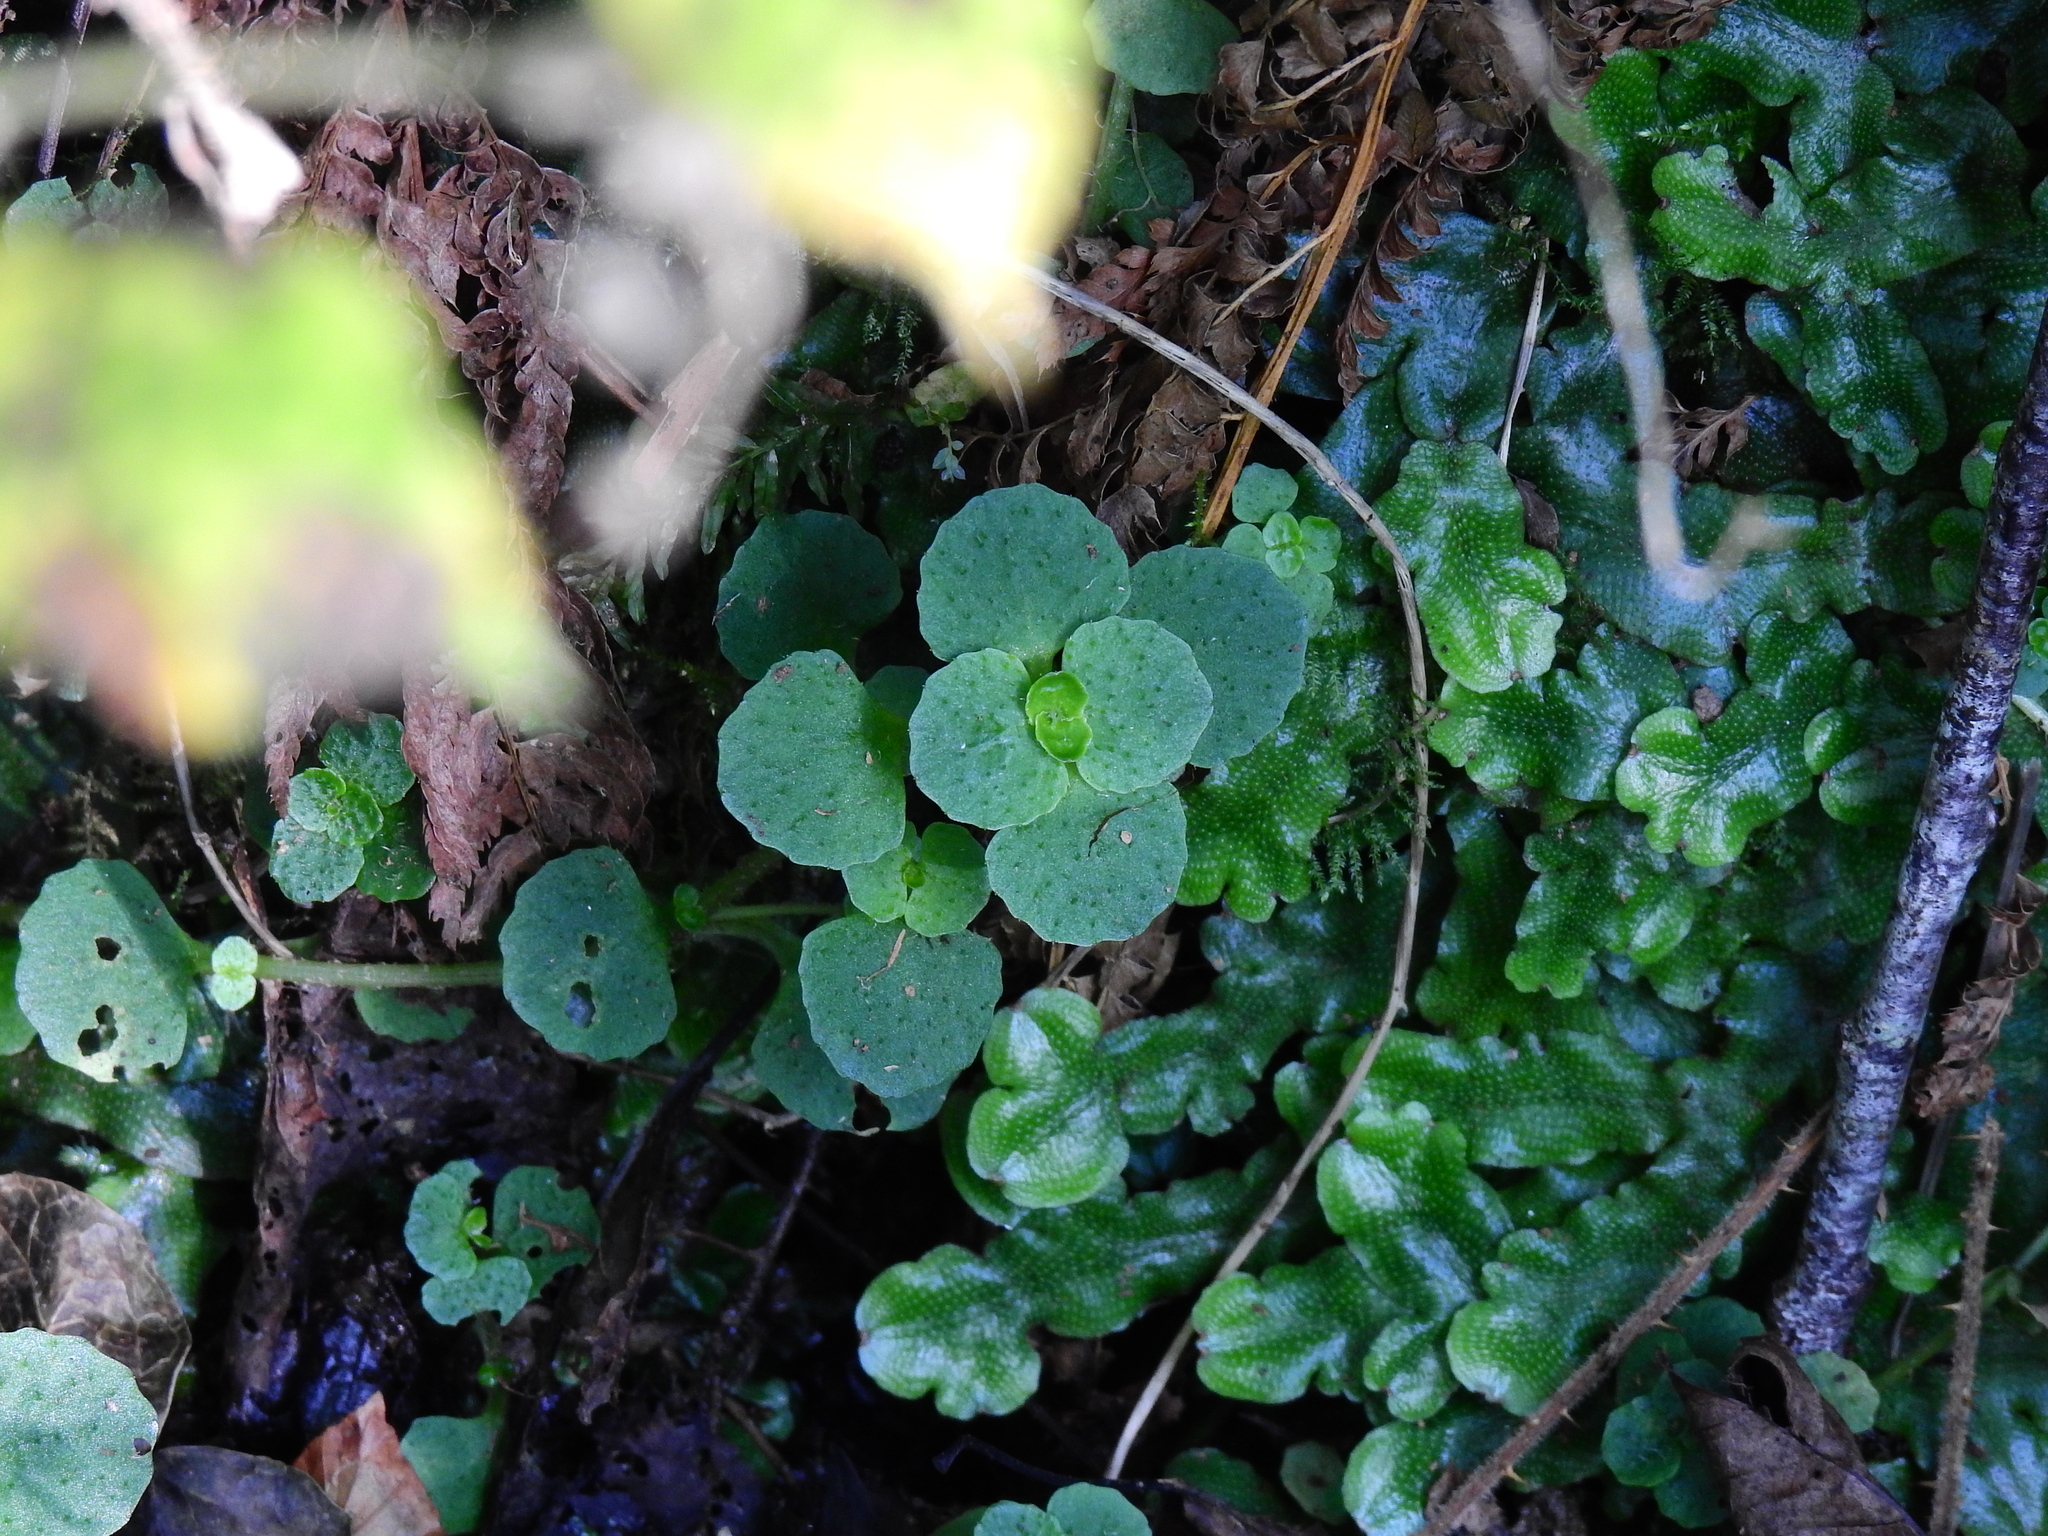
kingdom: Plantae
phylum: Tracheophyta
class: Magnoliopsida
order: Saxifragales
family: Saxifragaceae
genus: Chrysosplenium
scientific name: Chrysosplenium oppositifolium
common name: Opposite-leaved golden-saxifrage
